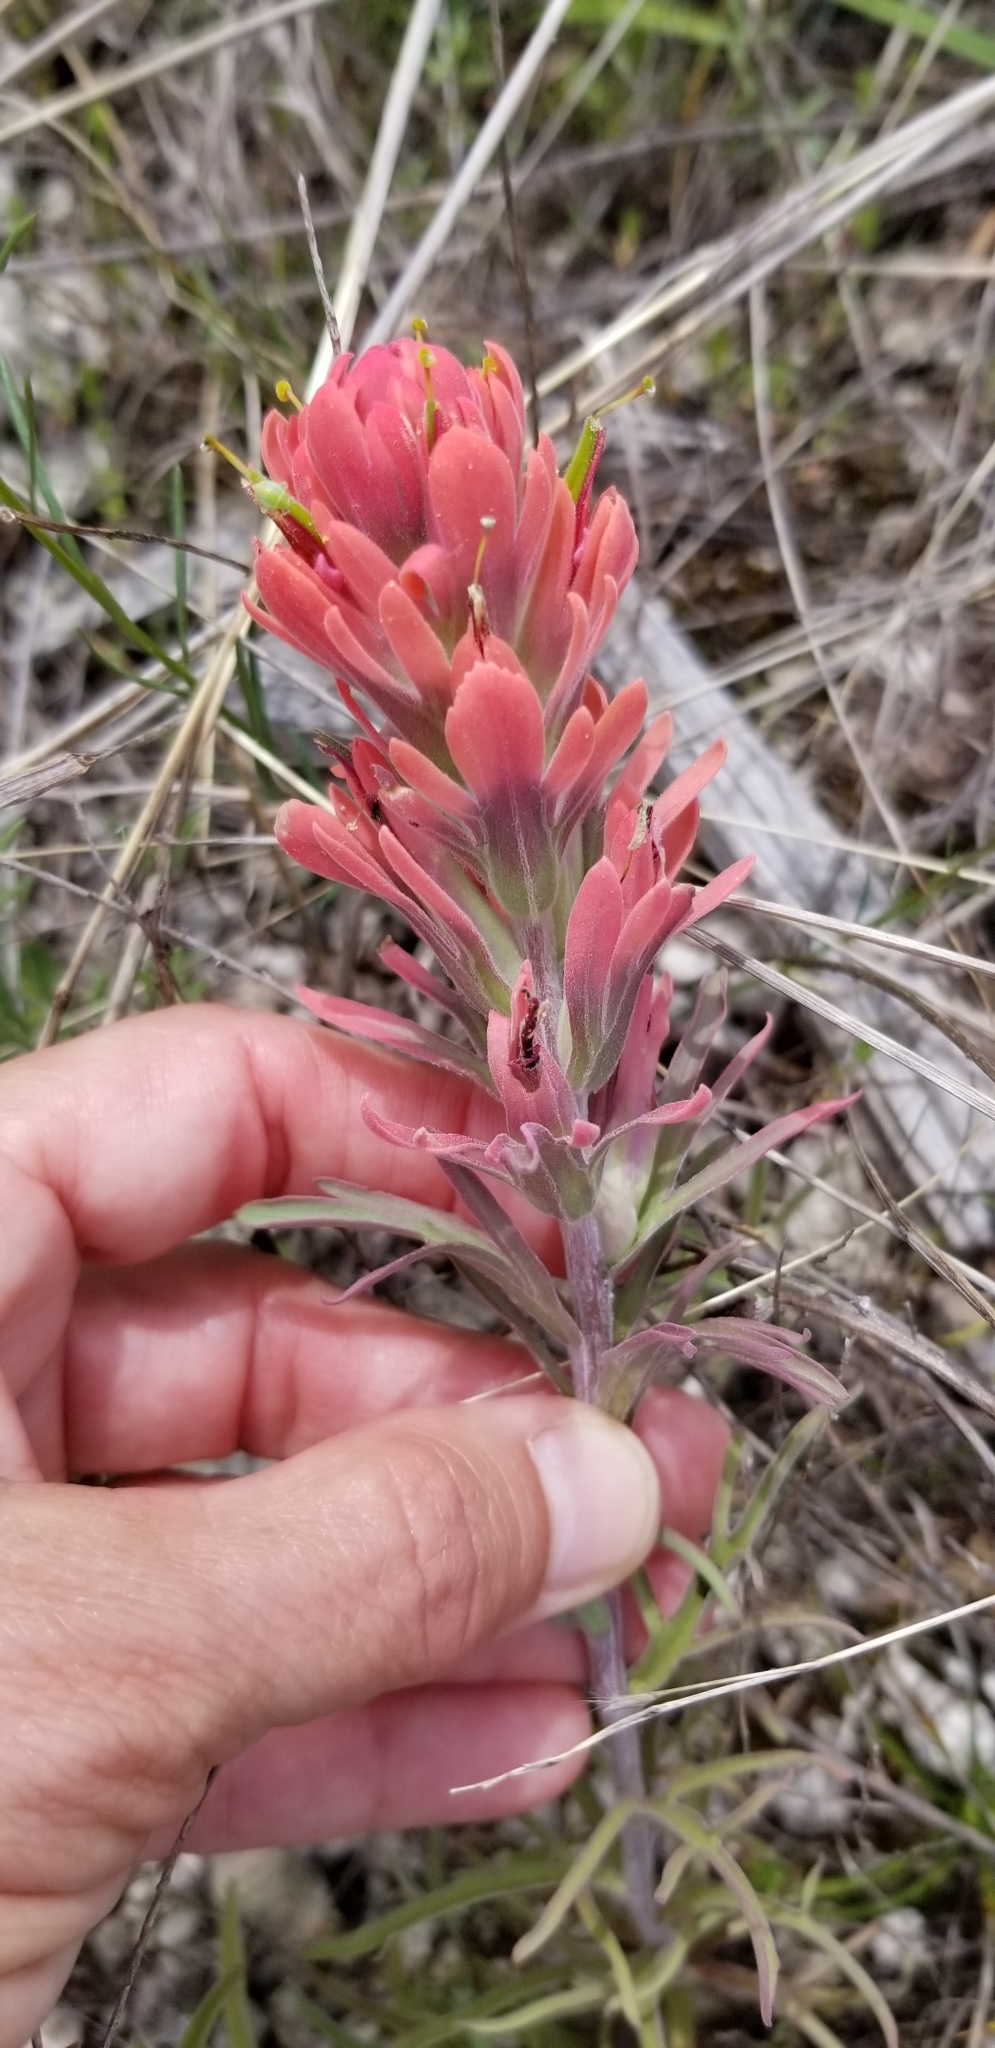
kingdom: Plantae
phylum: Tracheophyta
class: Magnoliopsida
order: Lamiales
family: Orobanchaceae
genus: Castilleja
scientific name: Castilleja purpurea
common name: Plains paintbrush
